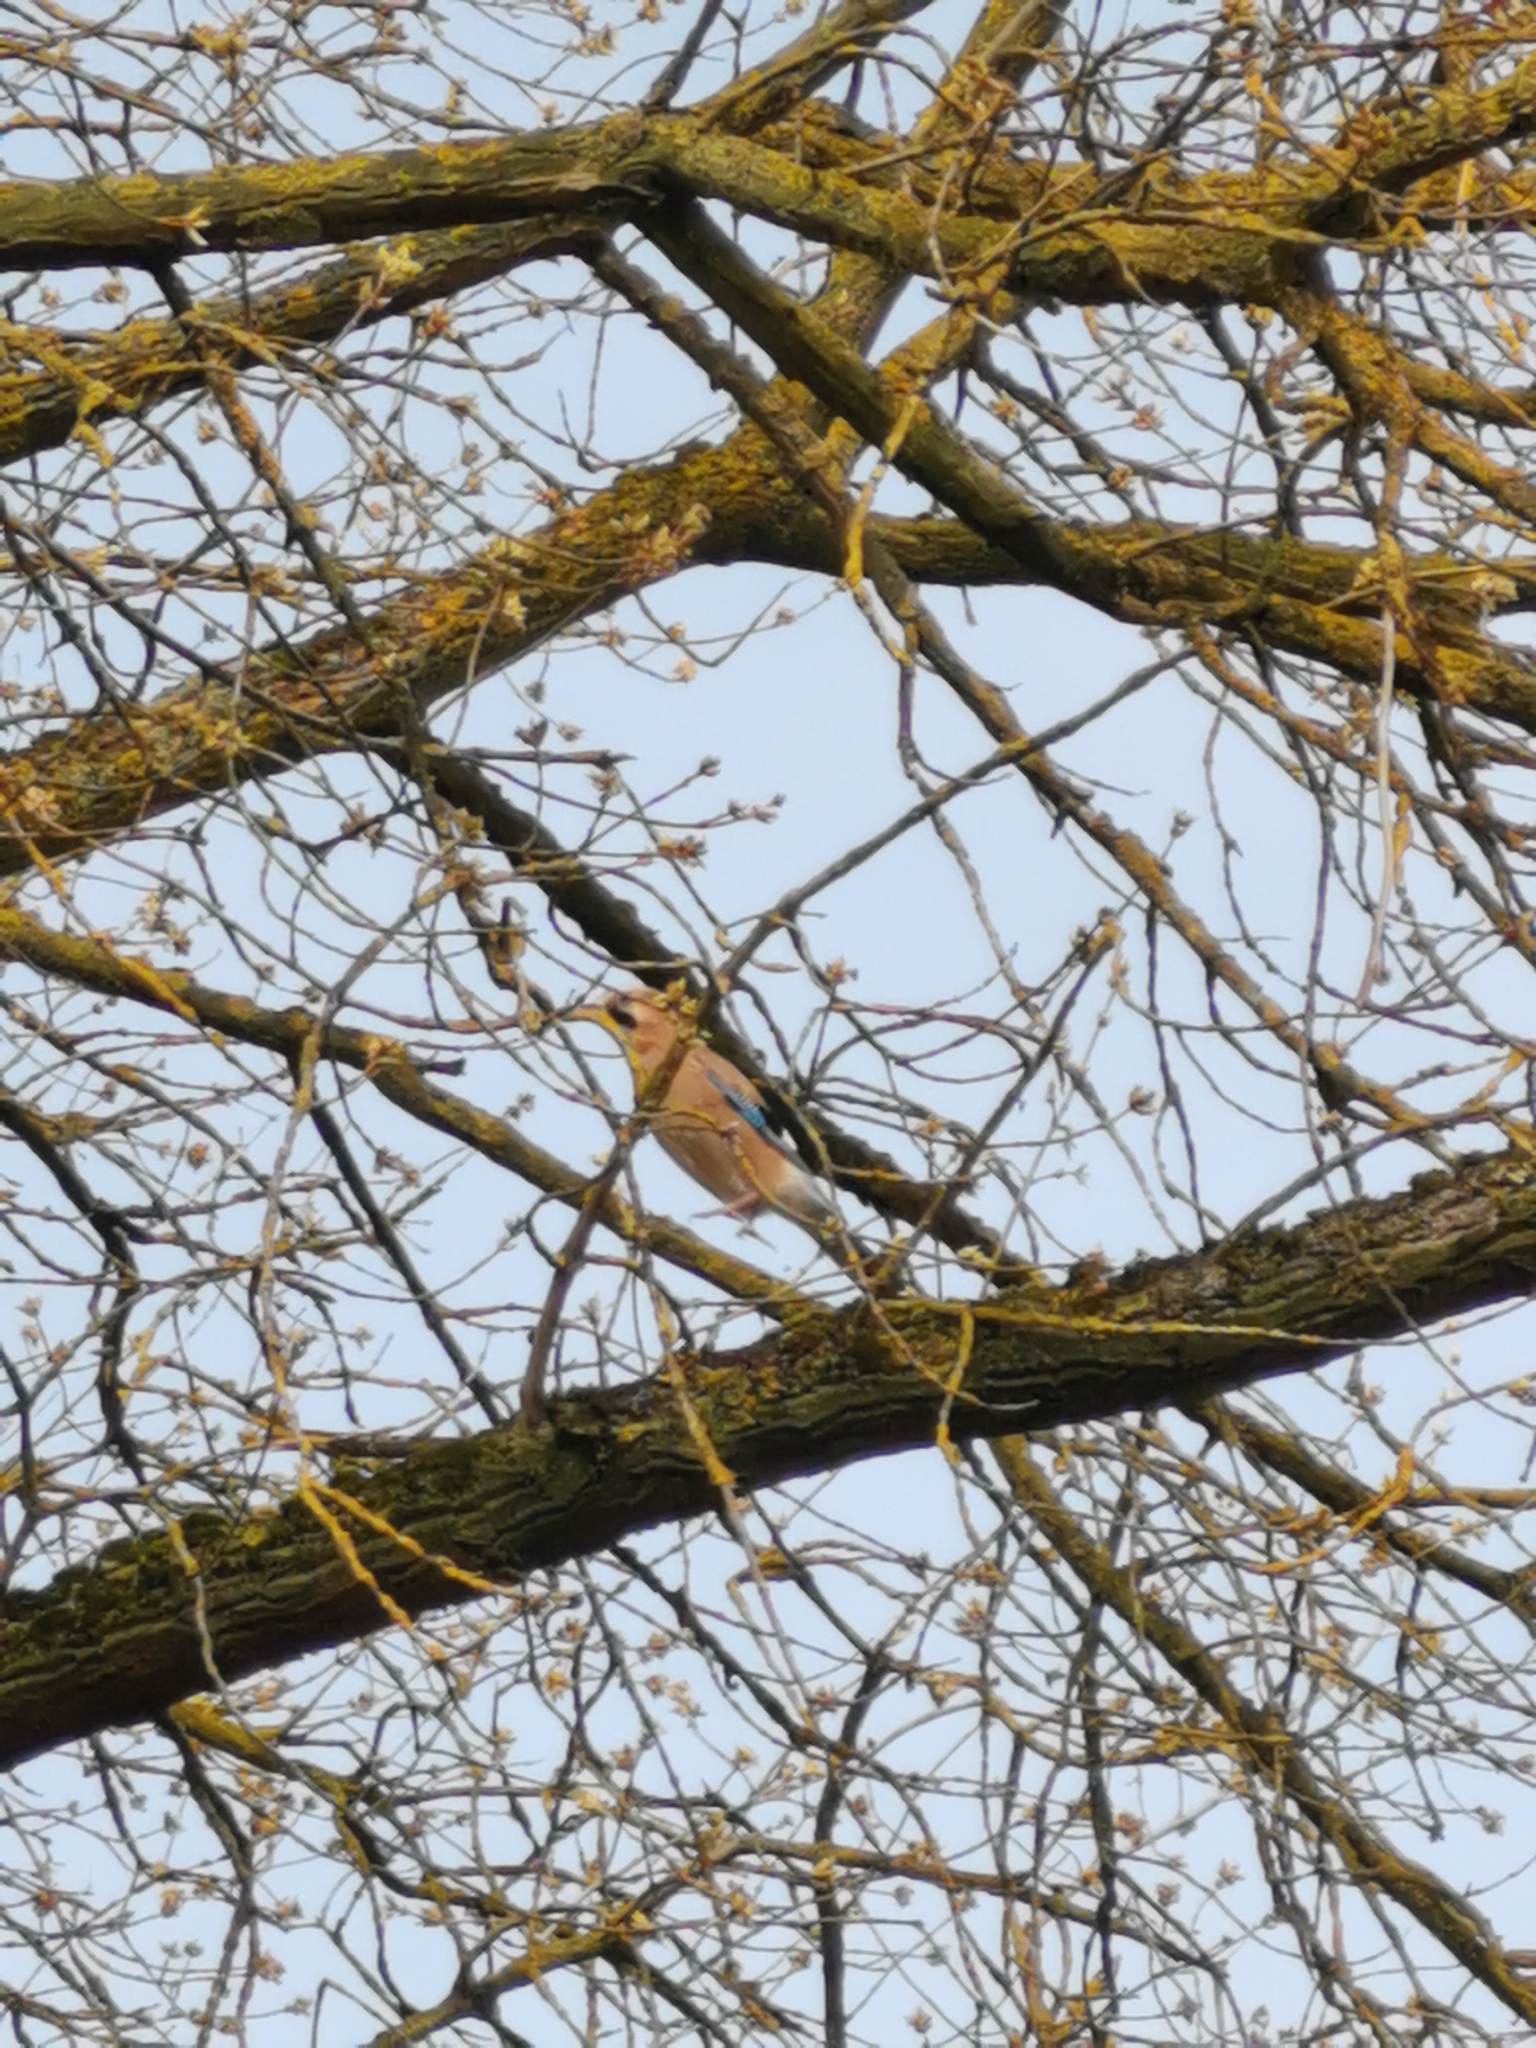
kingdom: Animalia
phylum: Chordata
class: Aves
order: Passeriformes
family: Corvidae
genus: Garrulus
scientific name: Garrulus glandarius
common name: Eurasian jay
